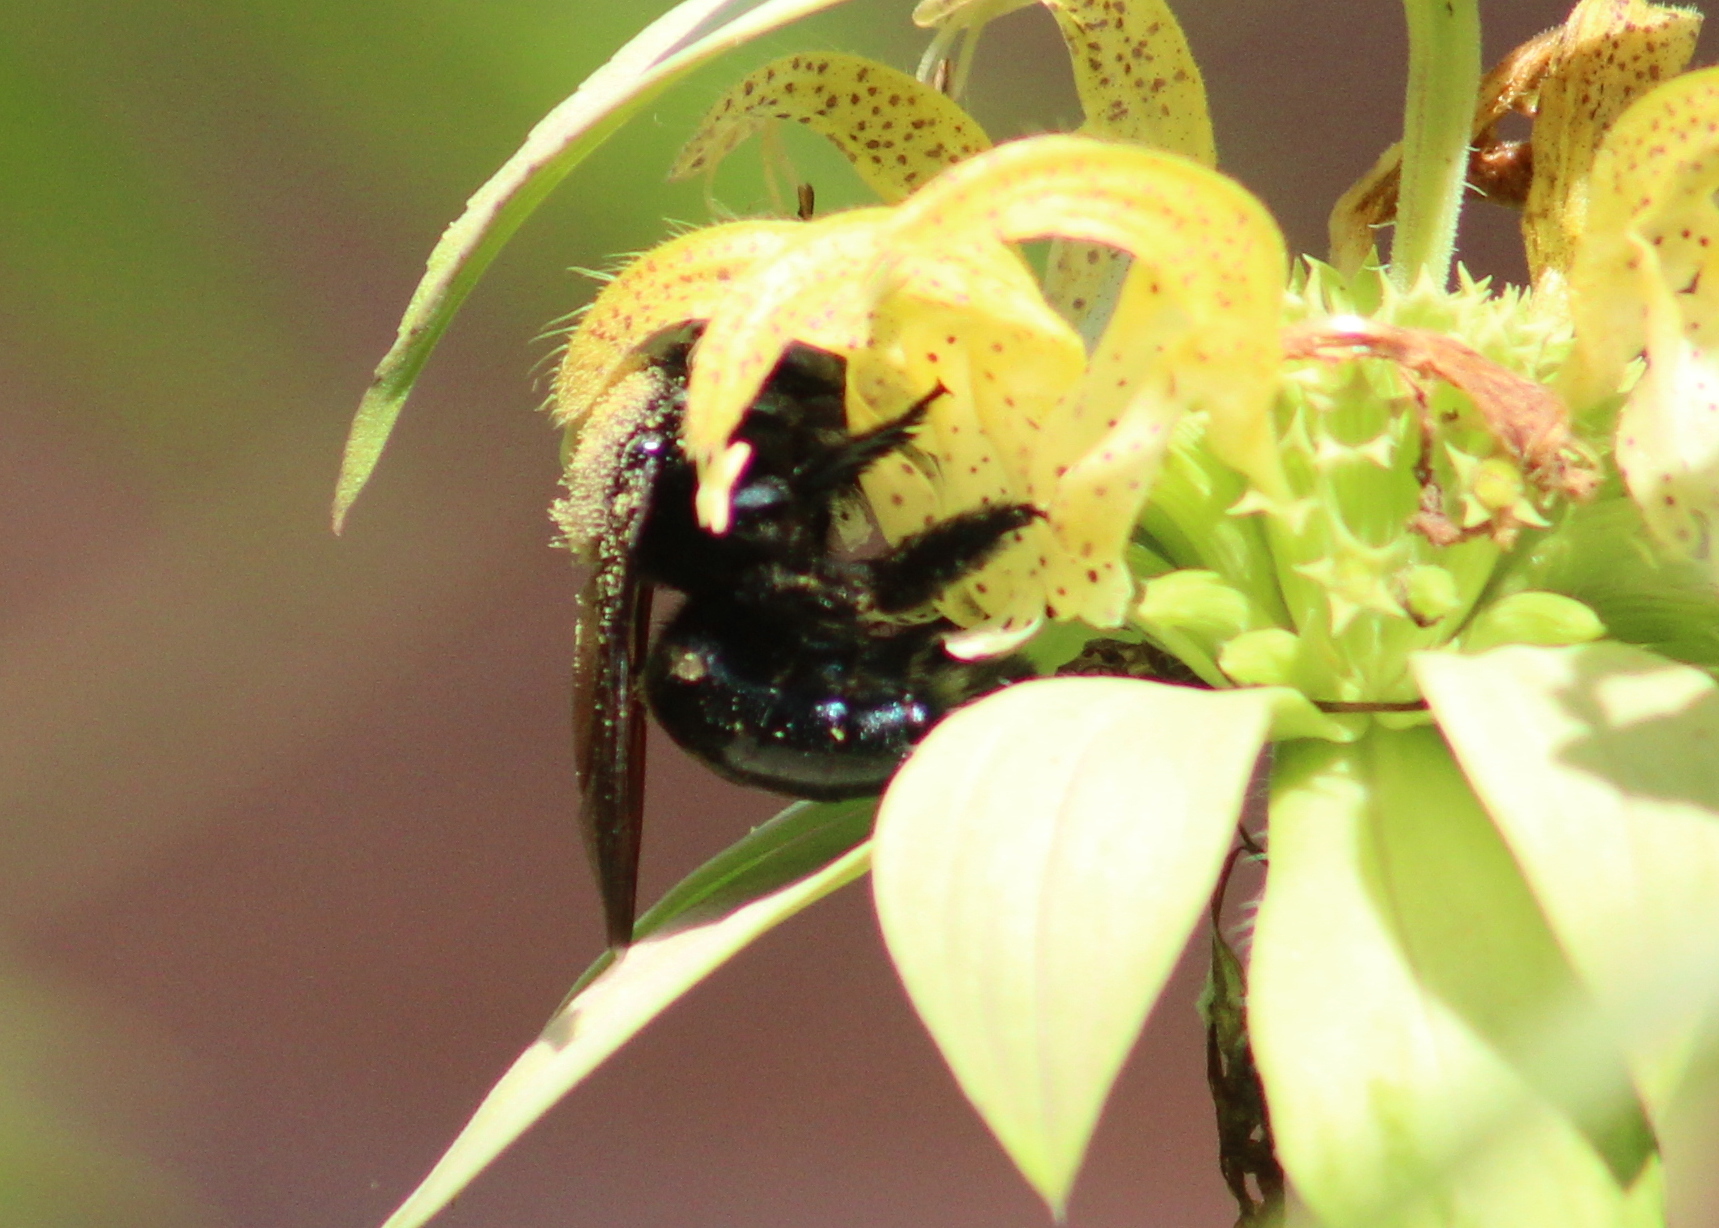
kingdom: Animalia
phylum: Arthropoda
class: Insecta
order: Hymenoptera
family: Apidae
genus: Xylocopa
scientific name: Xylocopa micans
